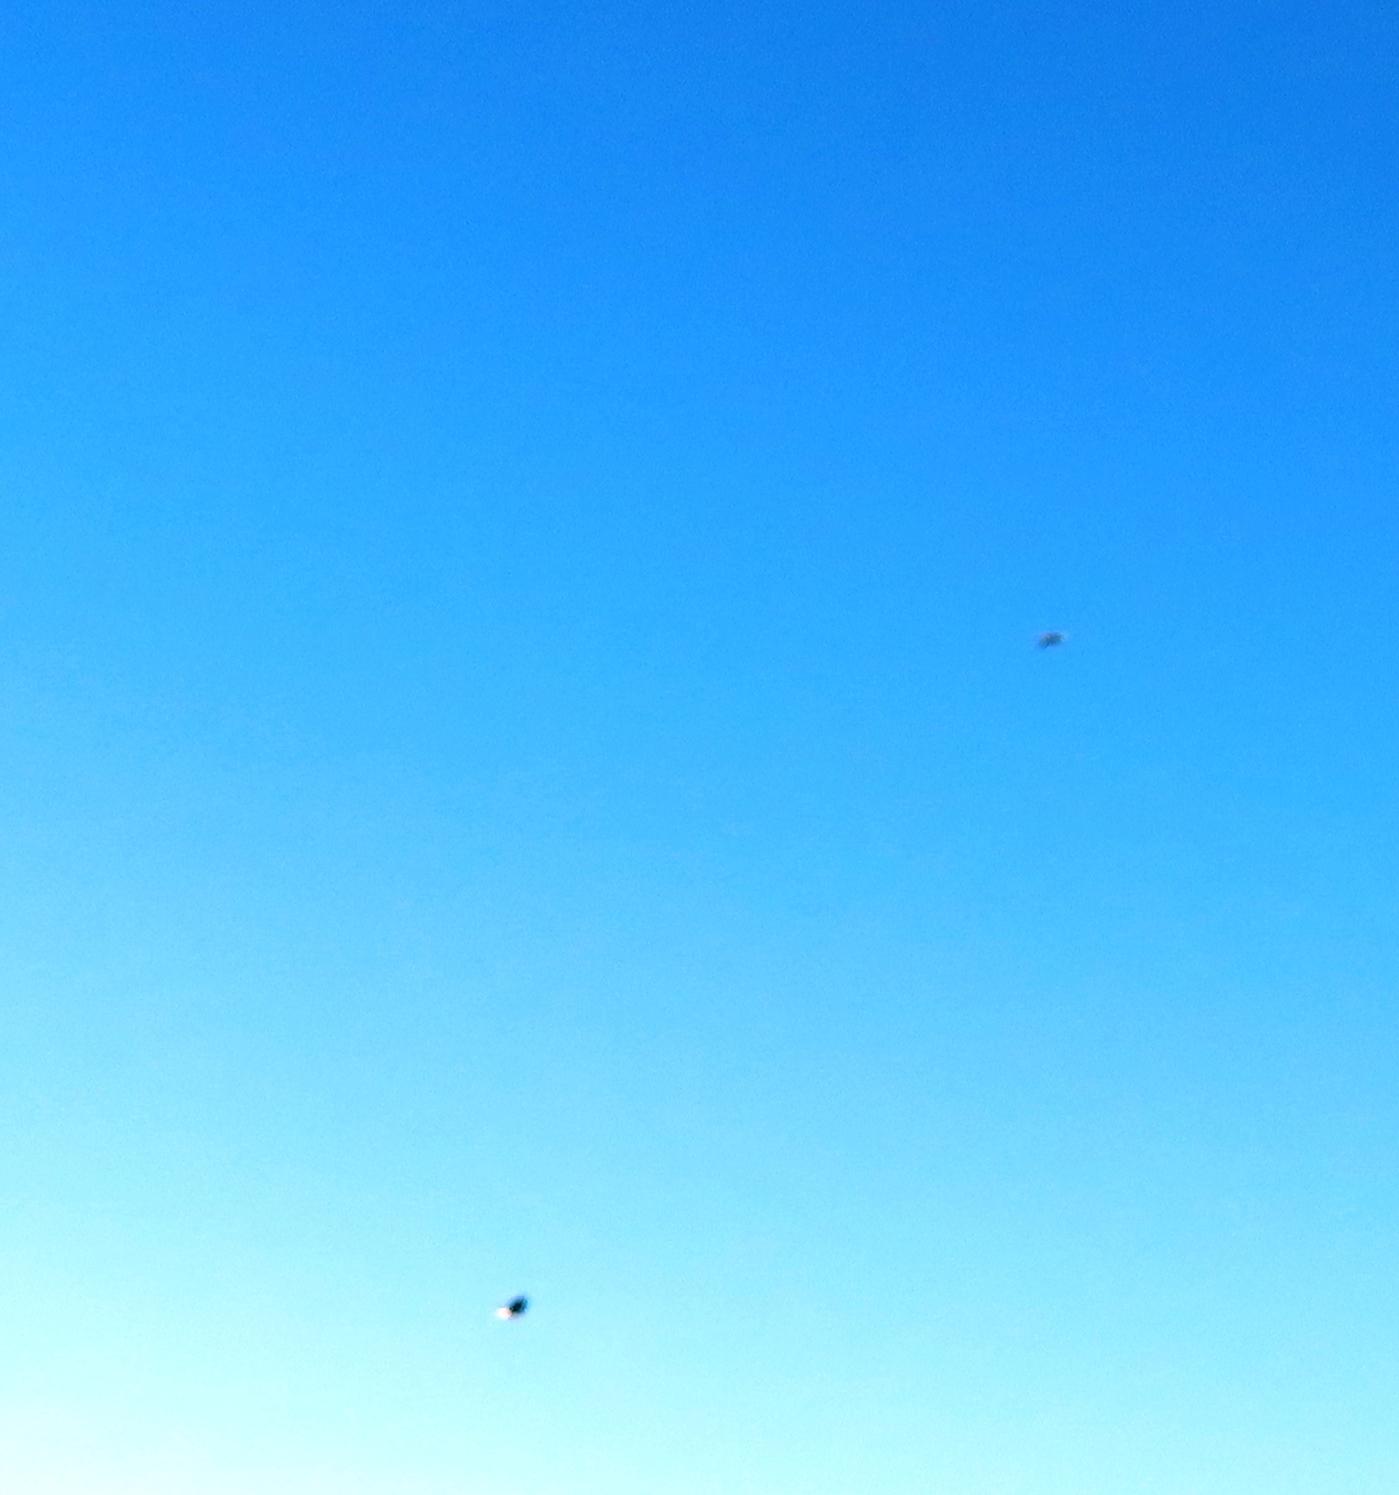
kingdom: Animalia
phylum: Chordata
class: Aves
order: Accipitriformes
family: Accipitridae
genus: Haliaeetus
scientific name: Haliaeetus vocifer
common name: African fish eagle
